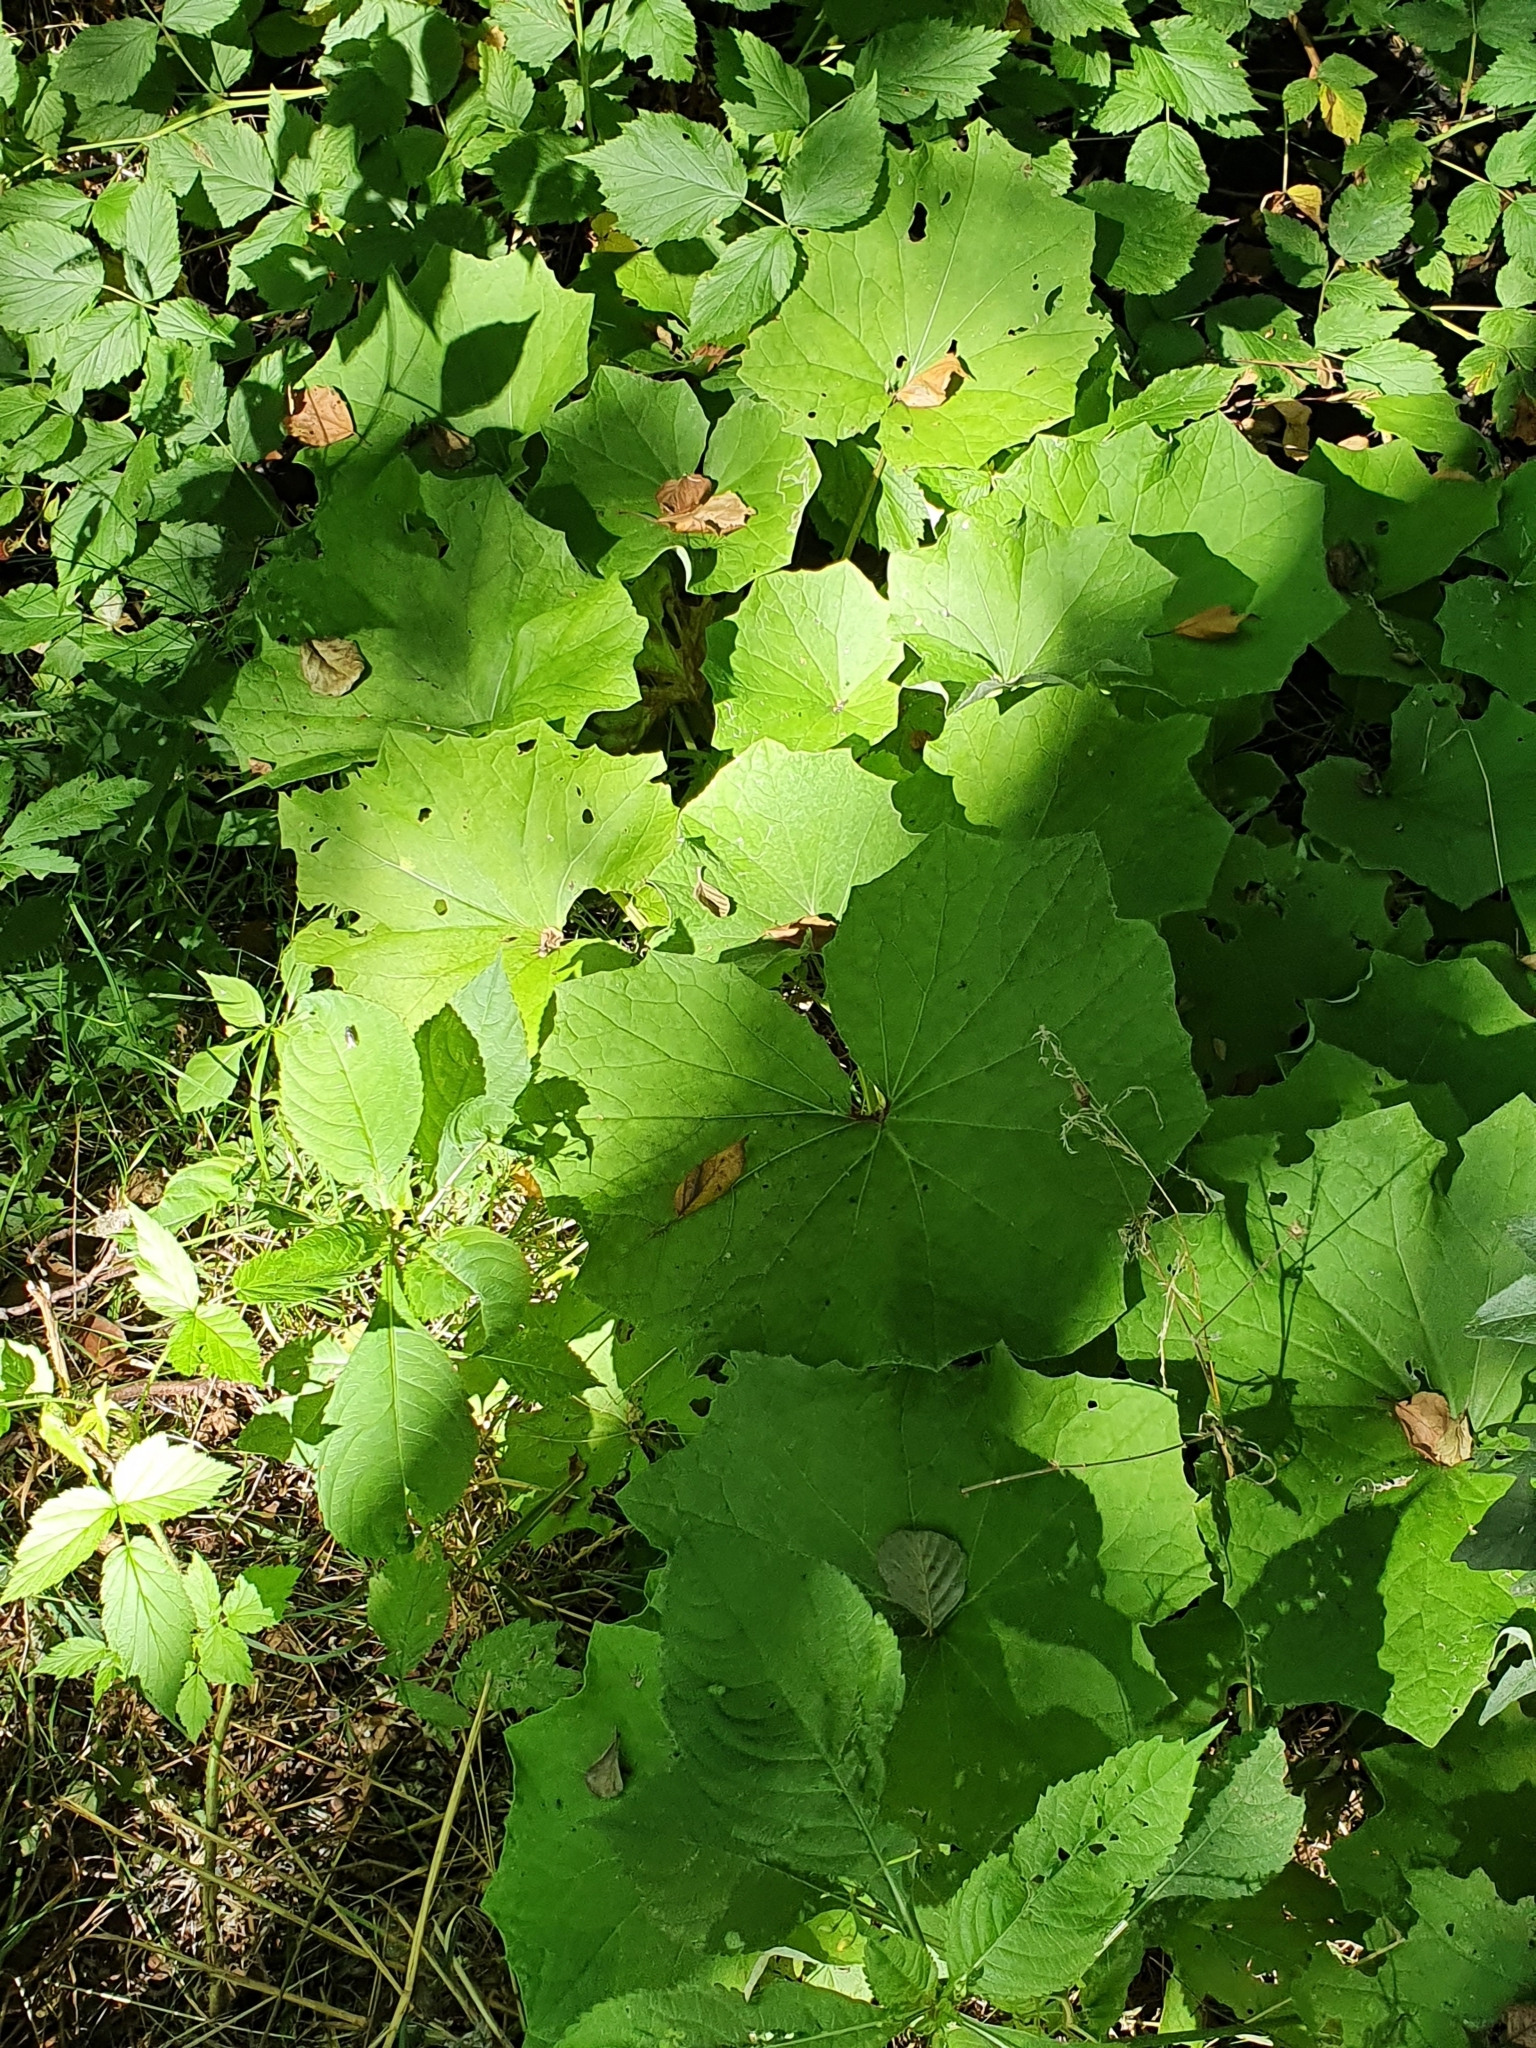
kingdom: Plantae
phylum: Tracheophyta
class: Magnoliopsida
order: Asterales
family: Asteraceae
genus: Tussilago
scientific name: Tussilago farfara
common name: Coltsfoot
